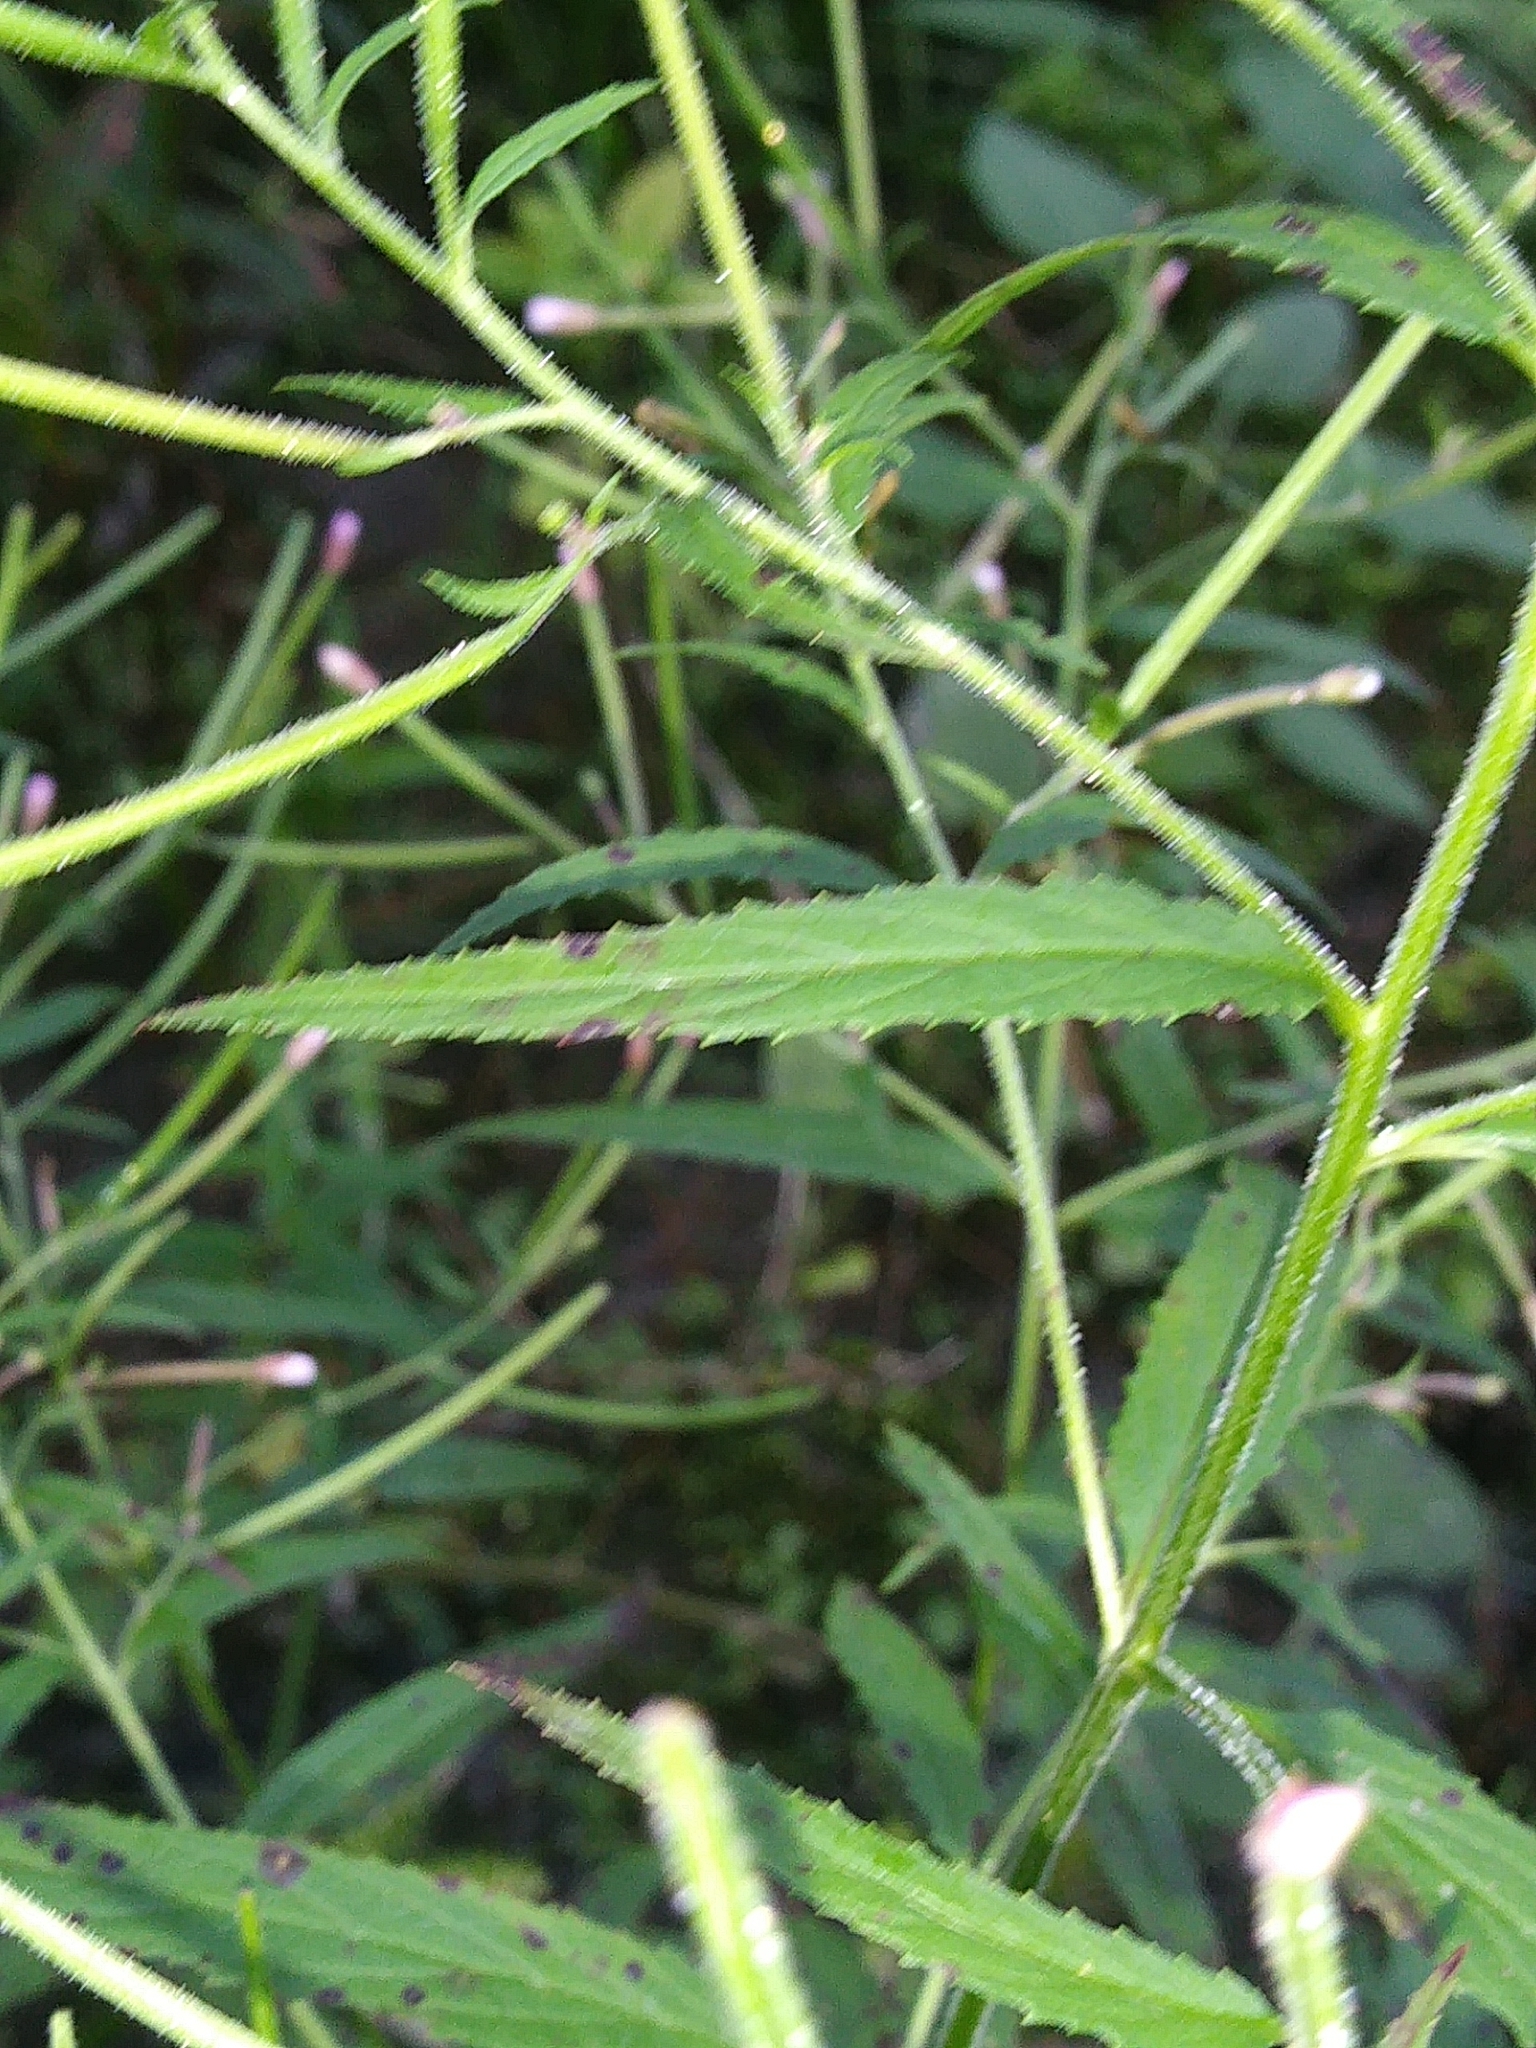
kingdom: Plantae
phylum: Tracheophyta
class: Magnoliopsida
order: Myrtales
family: Onagraceae
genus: Epilobium
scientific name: Epilobium coloratum
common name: Bronze willowherb
